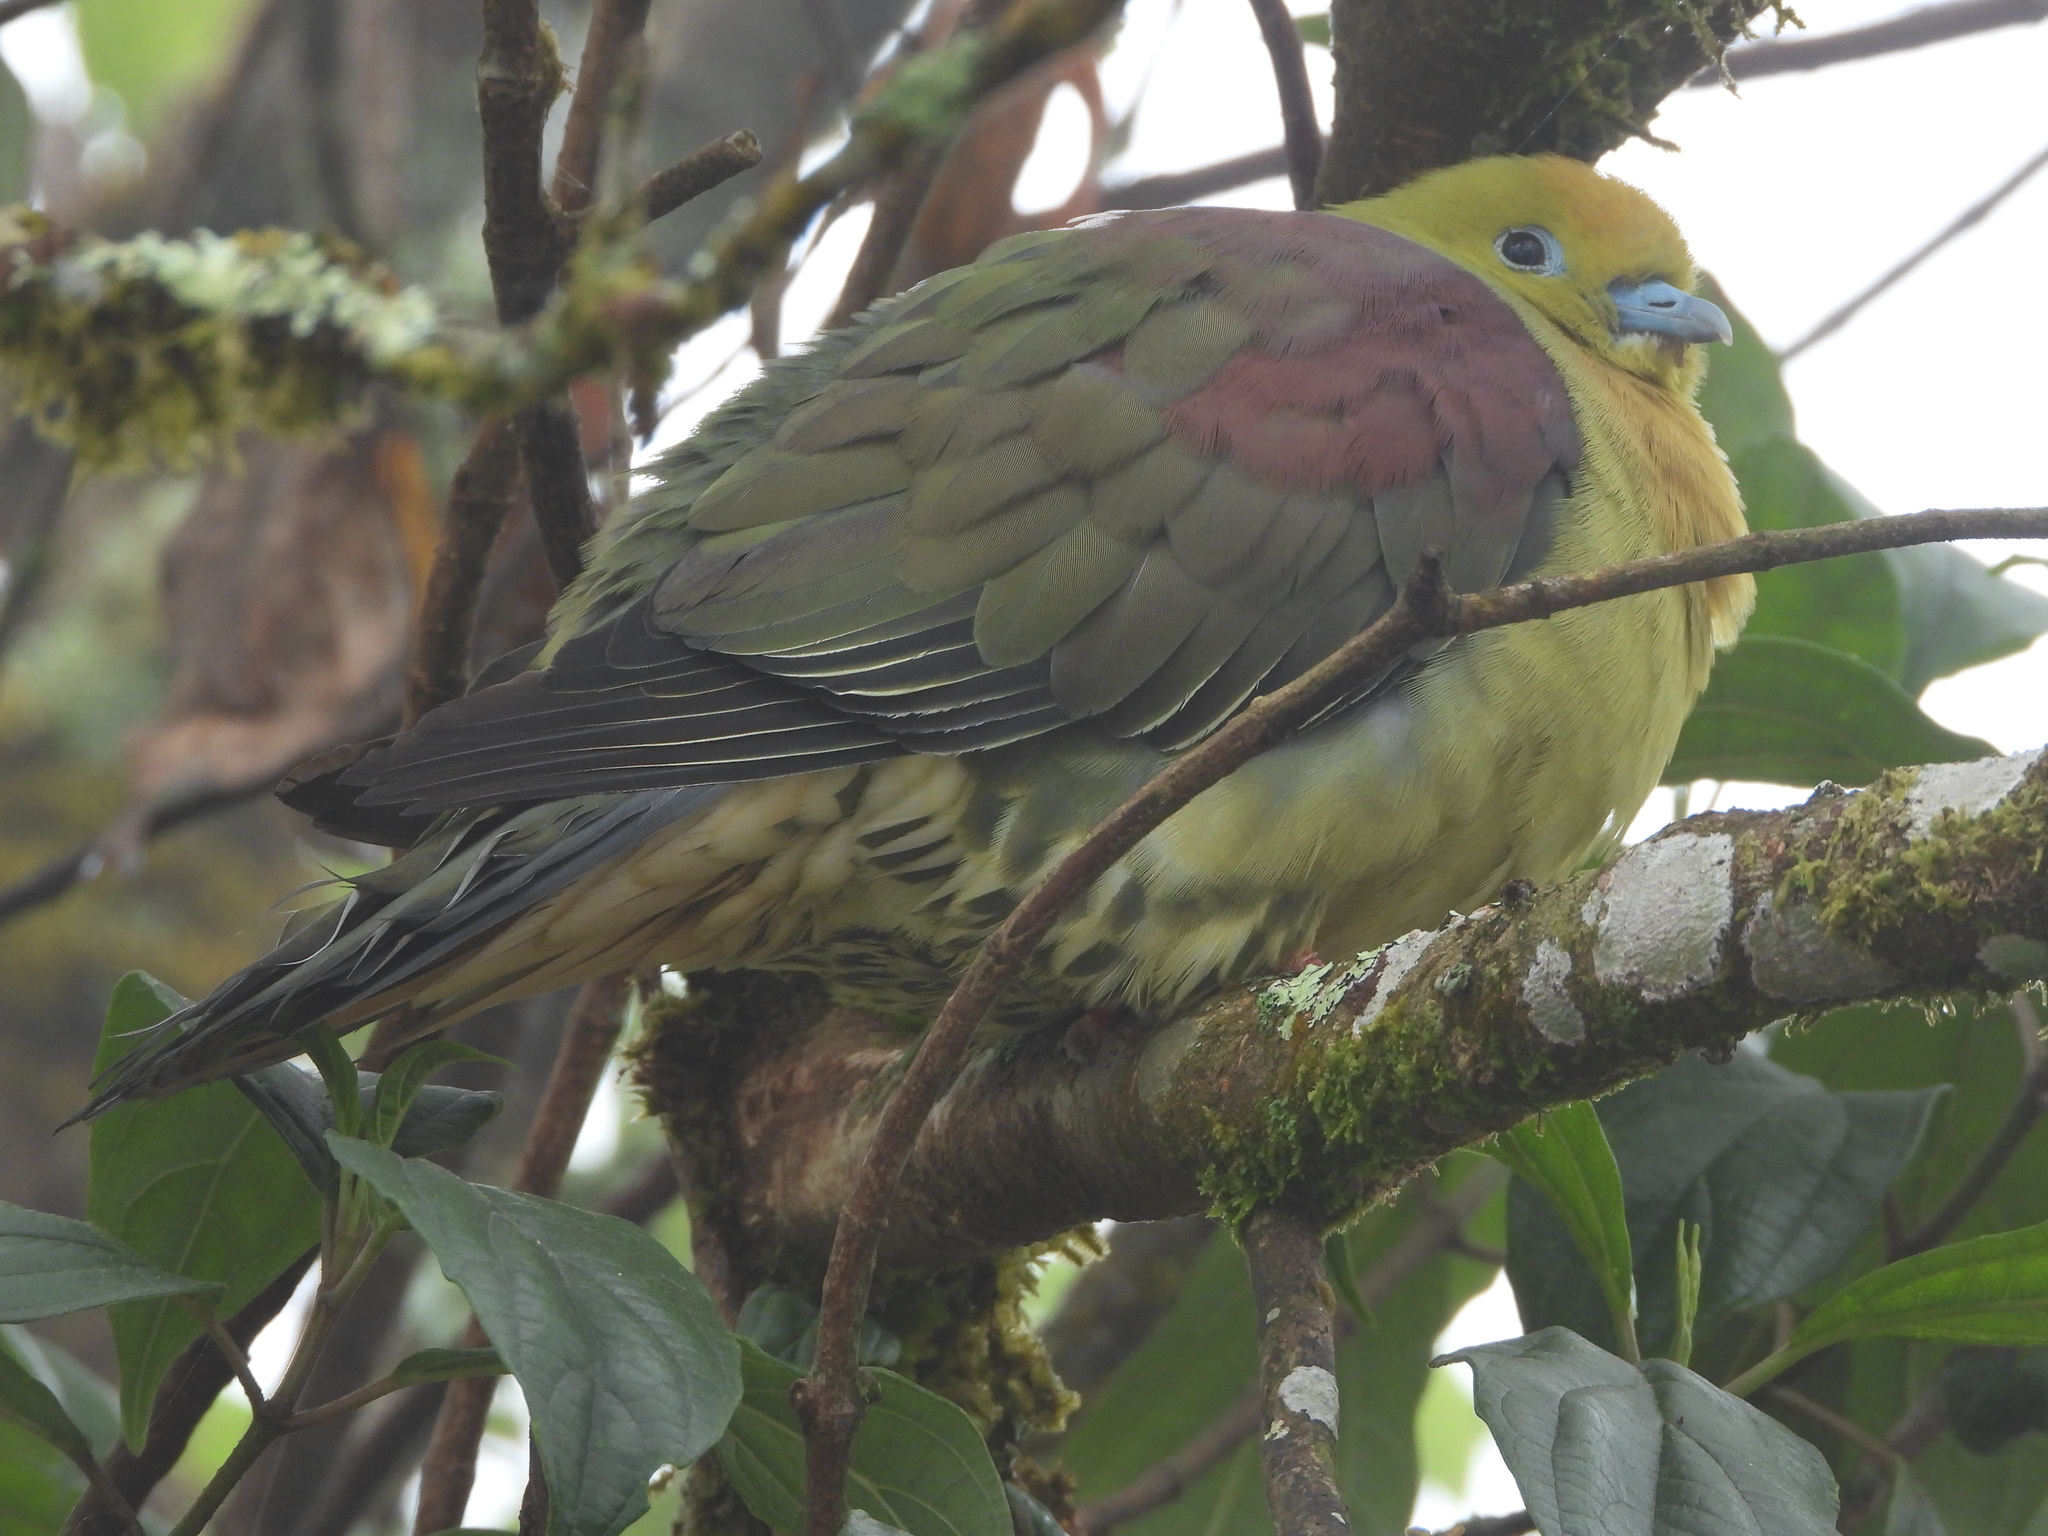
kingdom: Animalia
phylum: Chordata
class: Aves
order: Columbiformes
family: Columbidae
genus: Treron
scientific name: Treron sphenurus
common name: Wedge-tailed green pigeon
